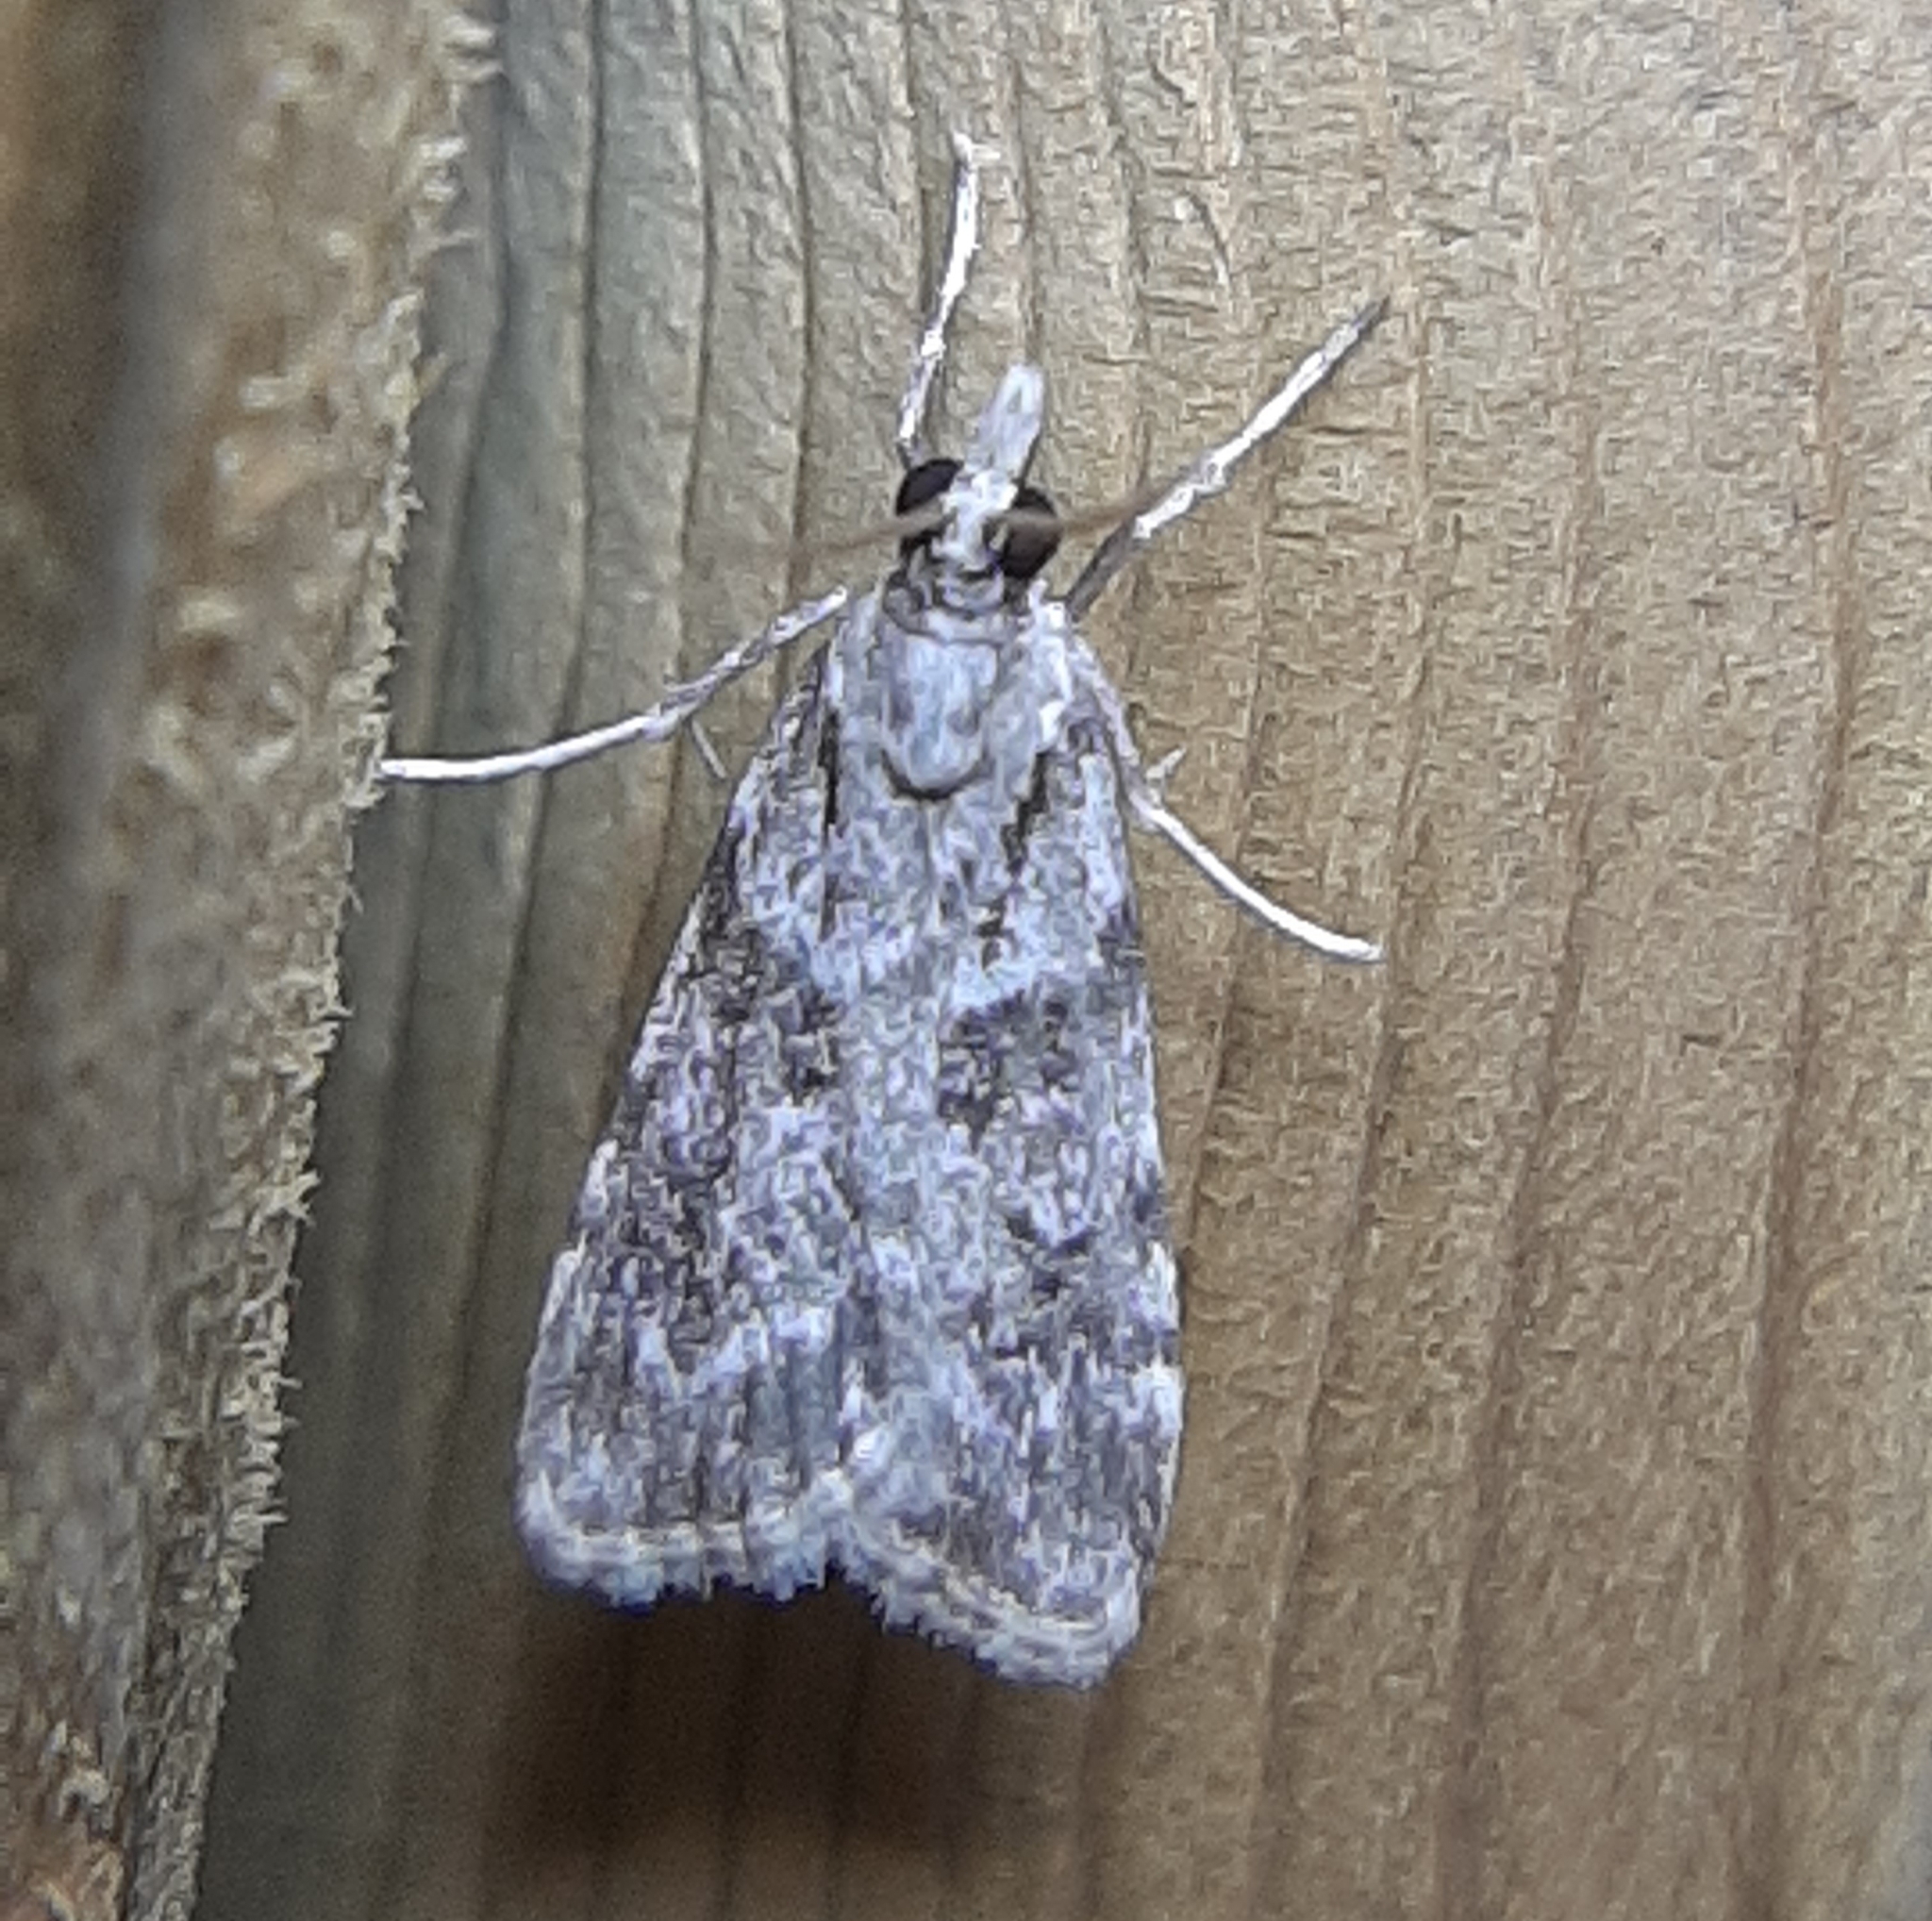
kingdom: Animalia
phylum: Arthropoda
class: Insecta
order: Lepidoptera
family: Crambidae
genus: Scoparia
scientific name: Scoparia biplagialis
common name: Double-striped scoparia moth
